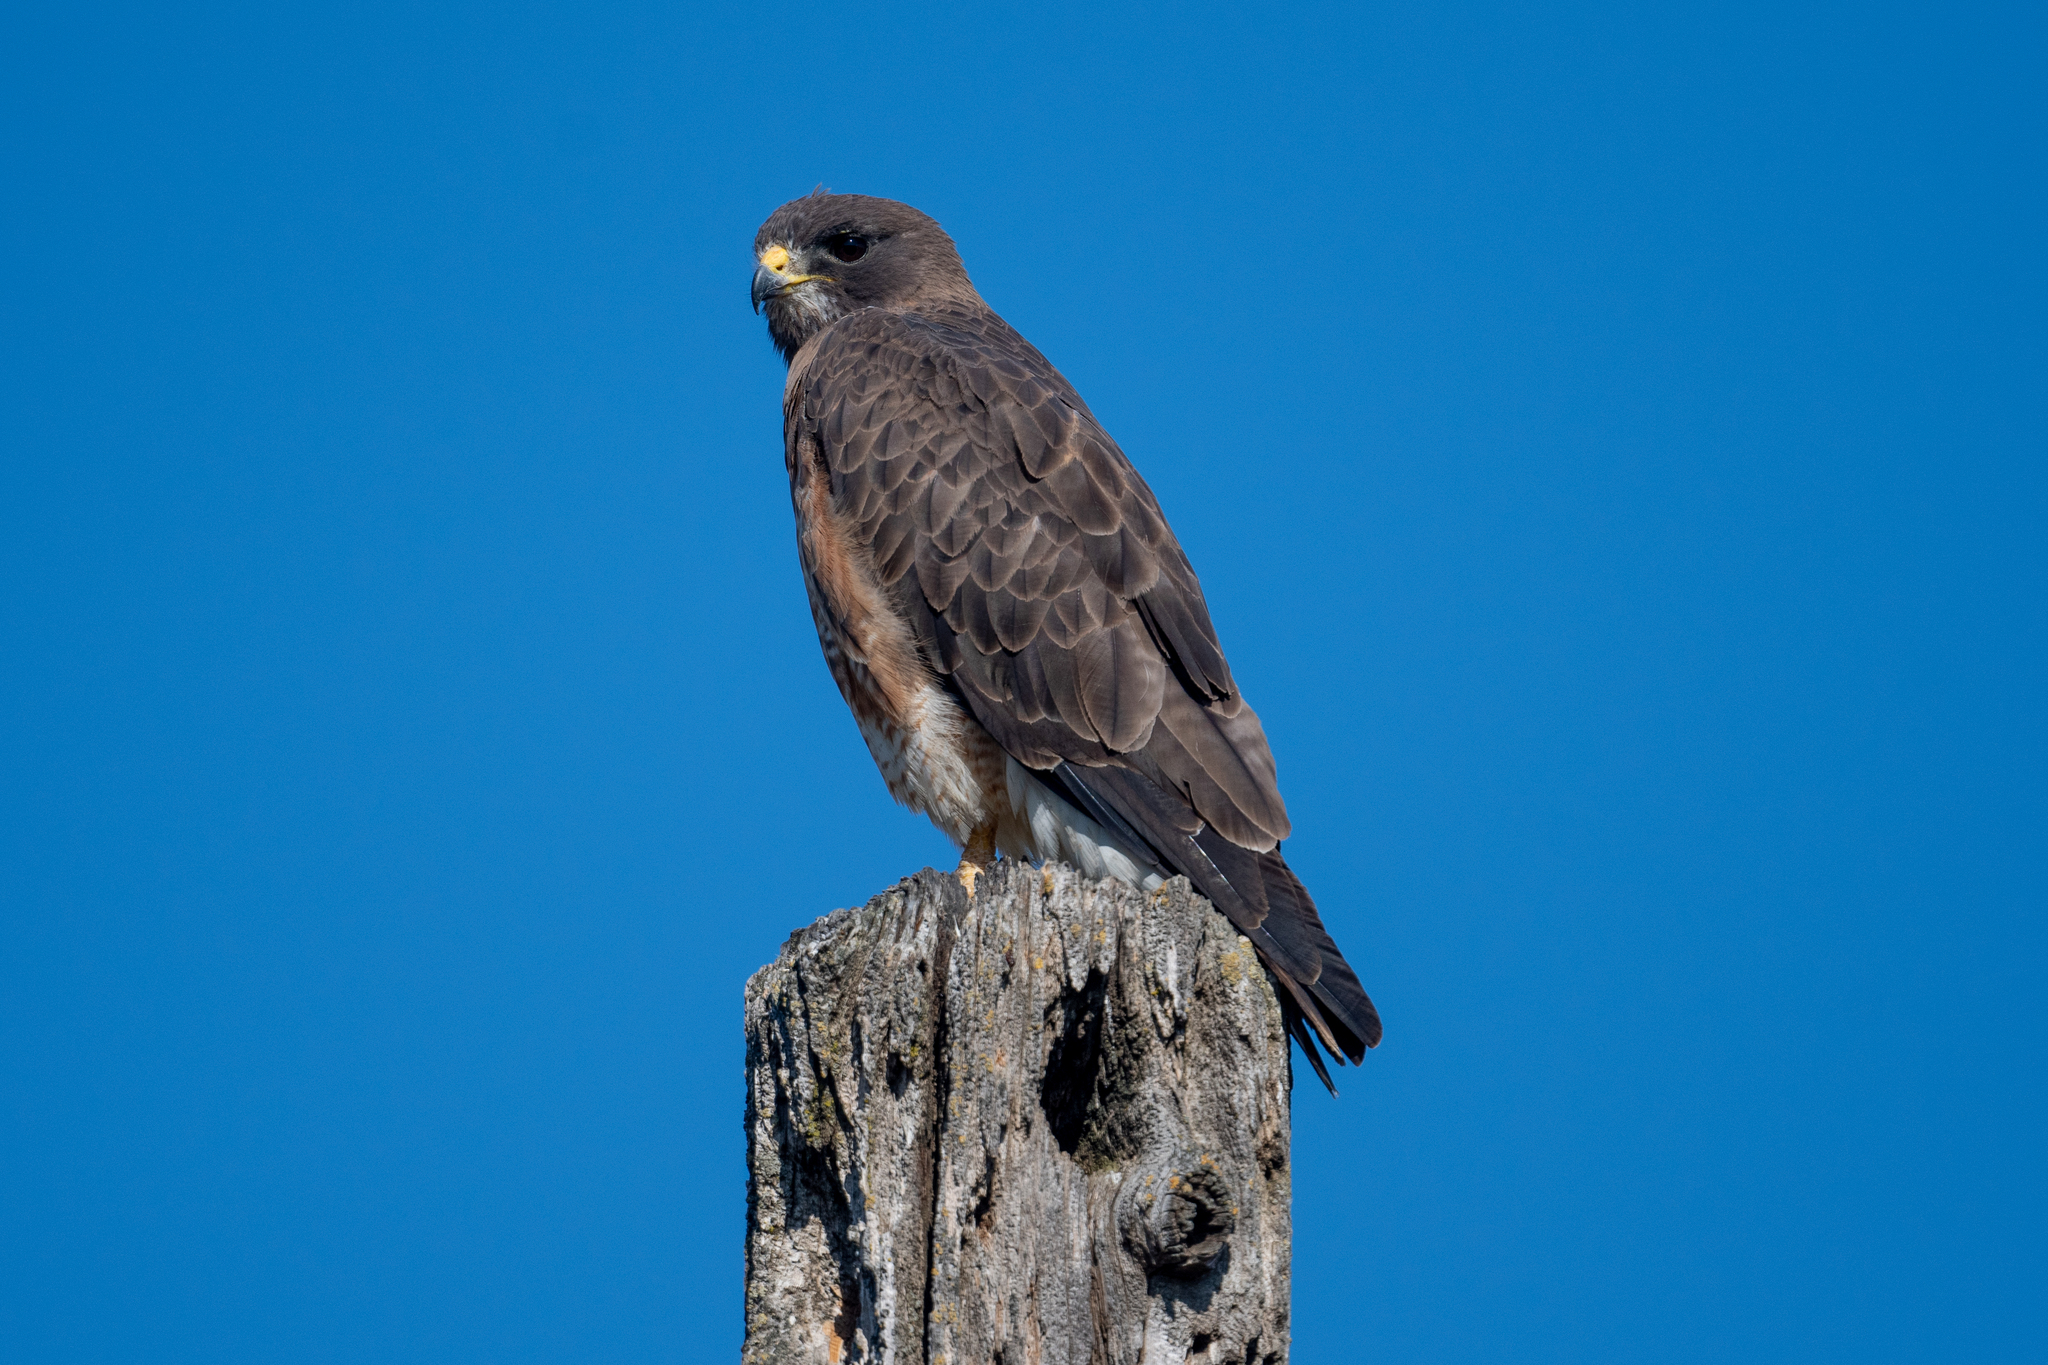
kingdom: Animalia
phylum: Chordata
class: Aves
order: Accipitriformes
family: Accipitridae
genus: Buteo
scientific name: Buteo swainsoni
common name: Swainson's hawk
